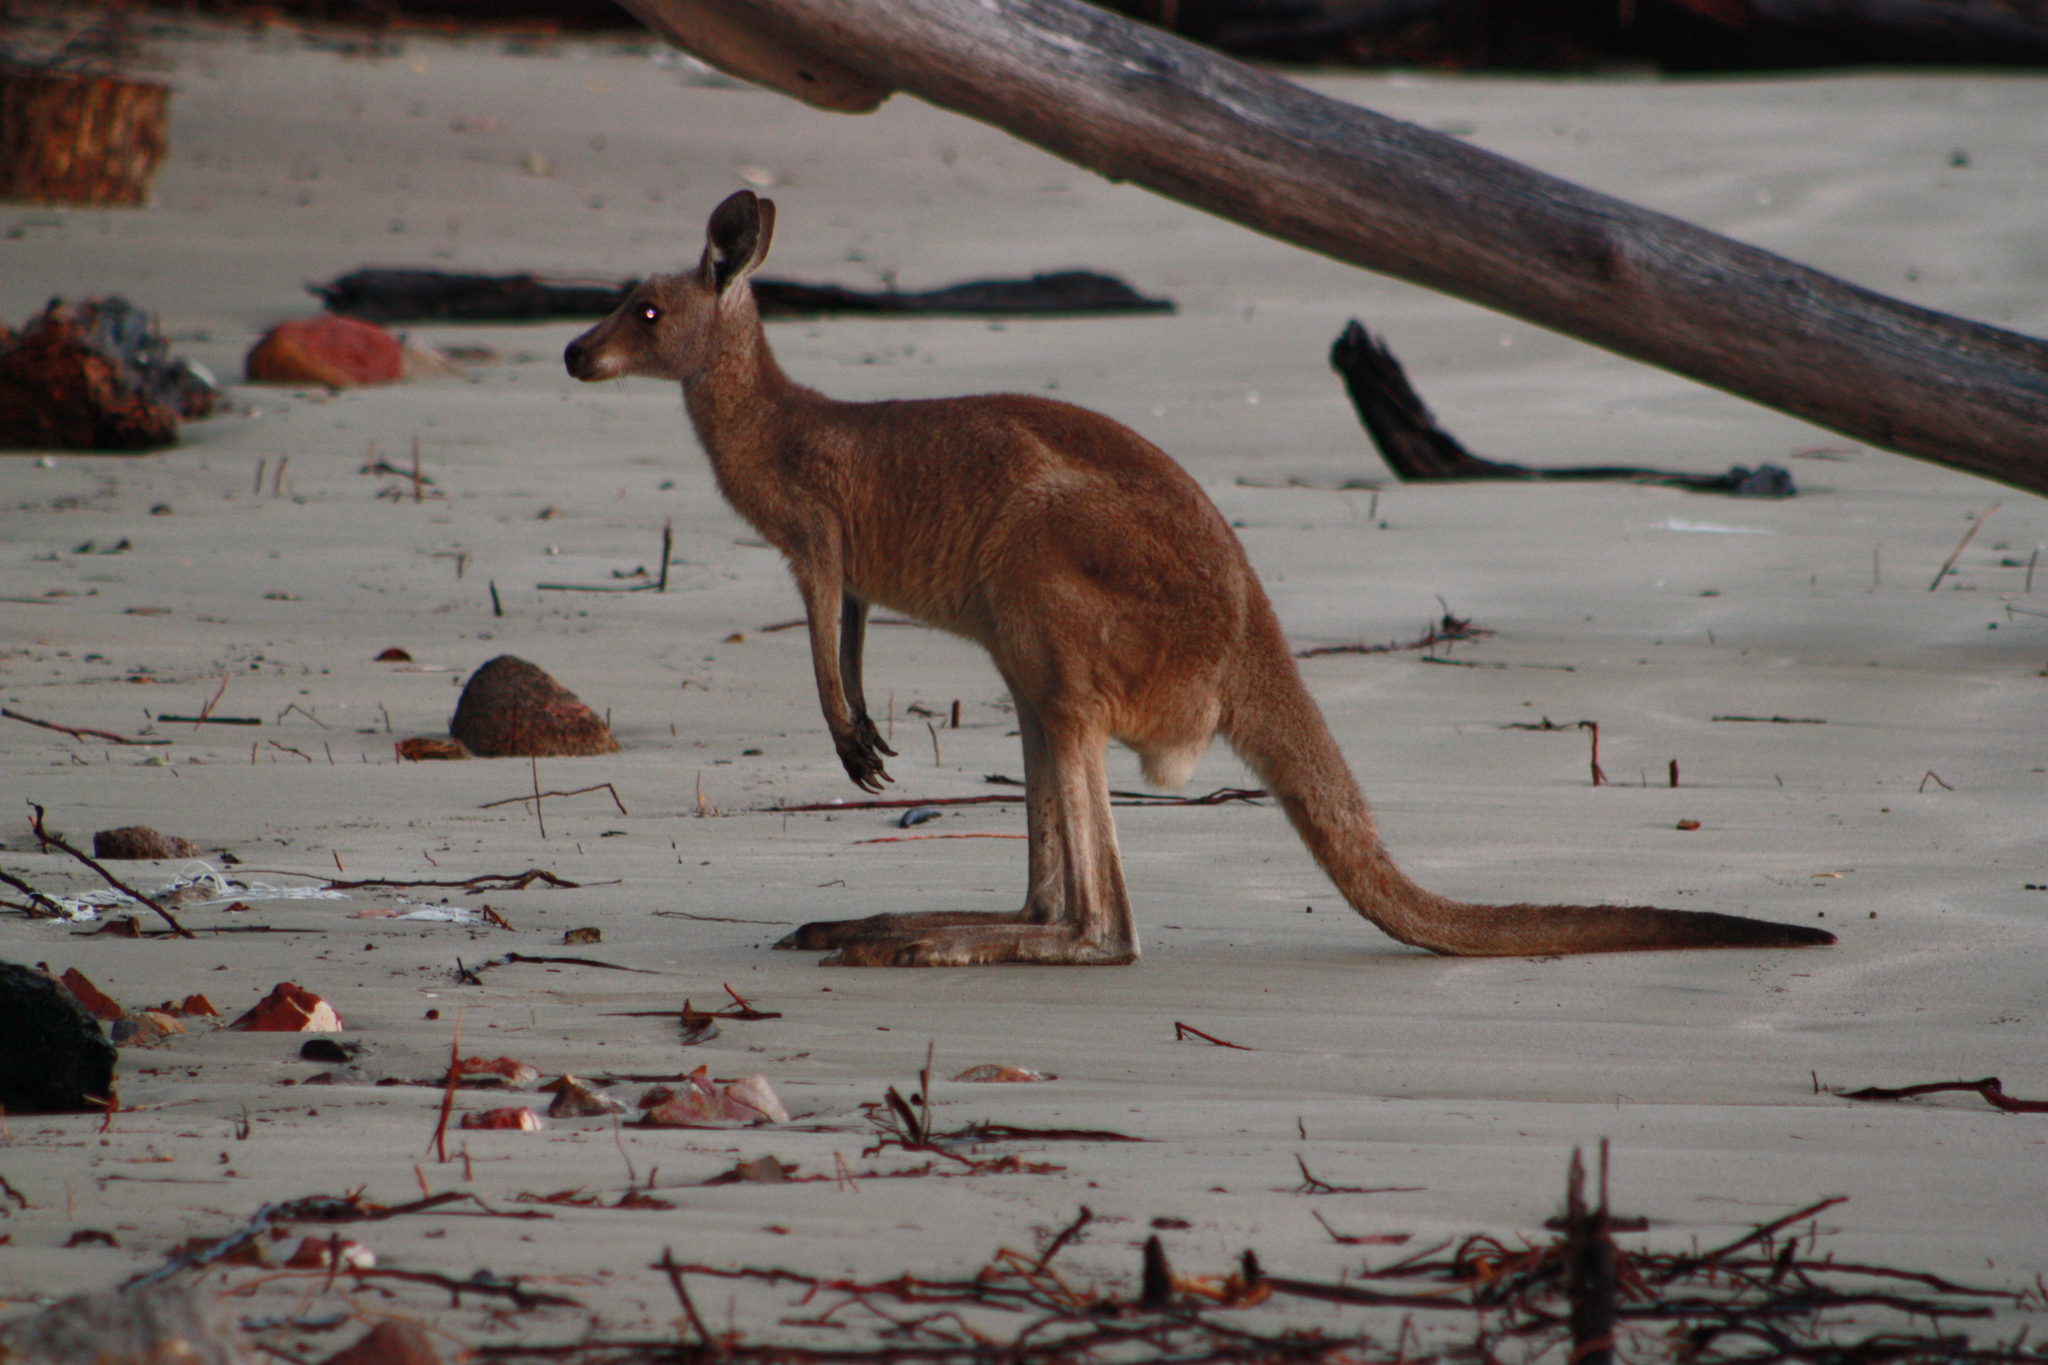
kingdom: Animalia
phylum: Chordata
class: Mammalia
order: Diprotodontia
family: Macropodidae
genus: Macropus
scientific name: Macropus giganteus
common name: Eastern grey kangaroo
